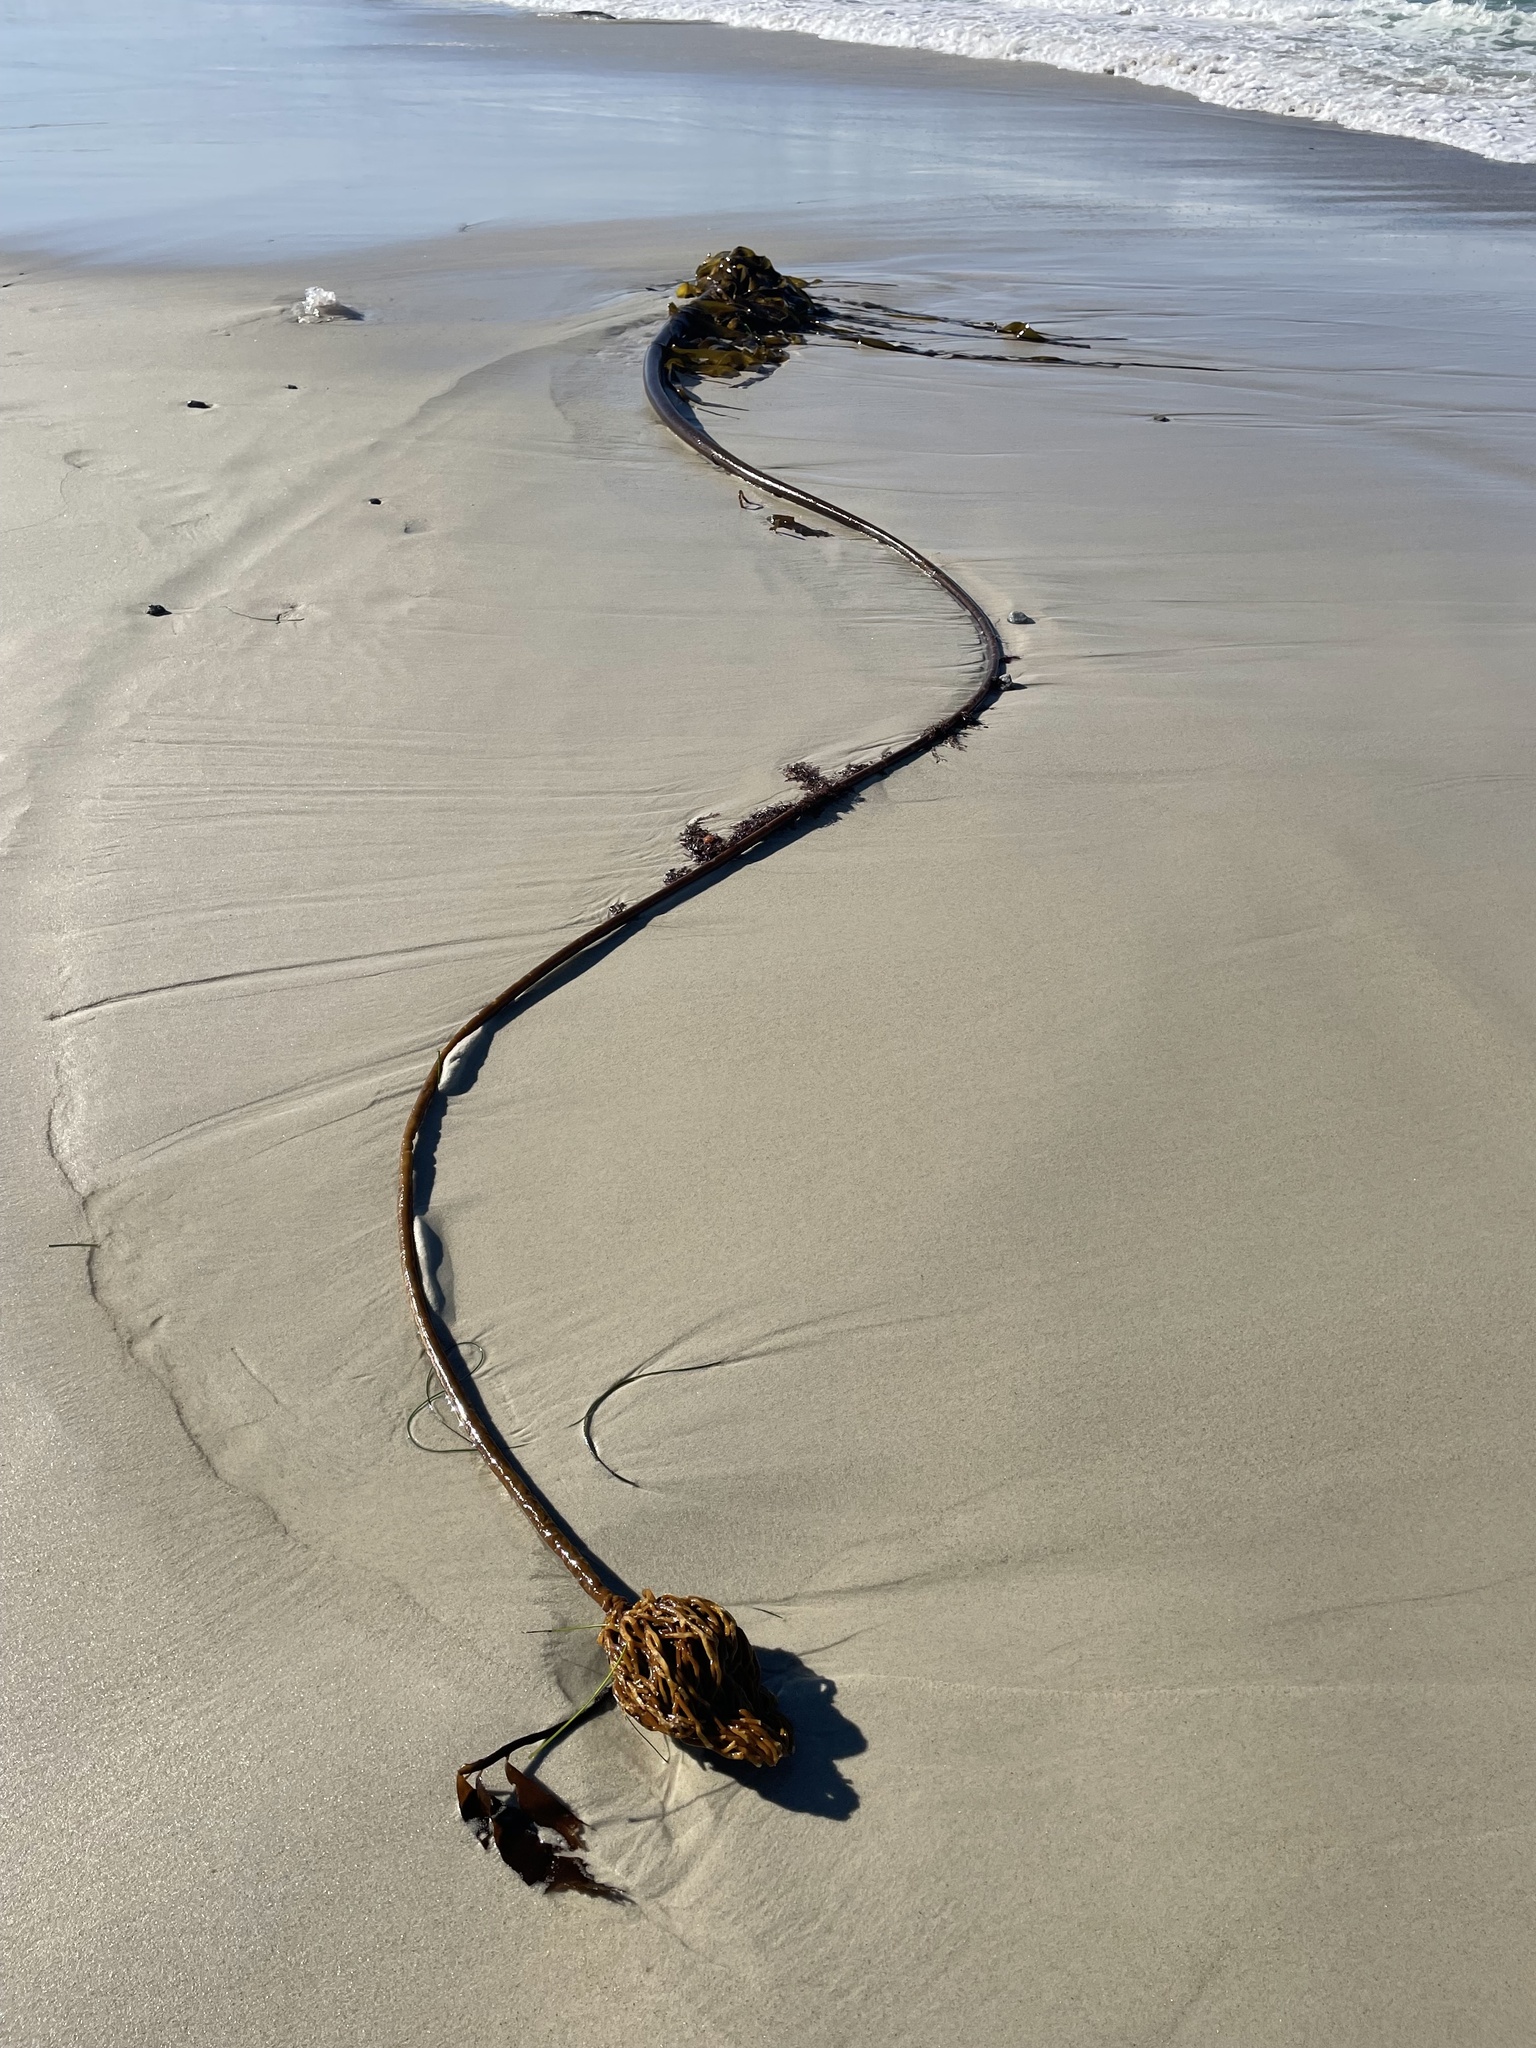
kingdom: Chromista
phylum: Ochrophyta
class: Phaeophyceae
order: Laminariales
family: Laminariaceae
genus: Nereocystis
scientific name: Nereocystis luetkeana
